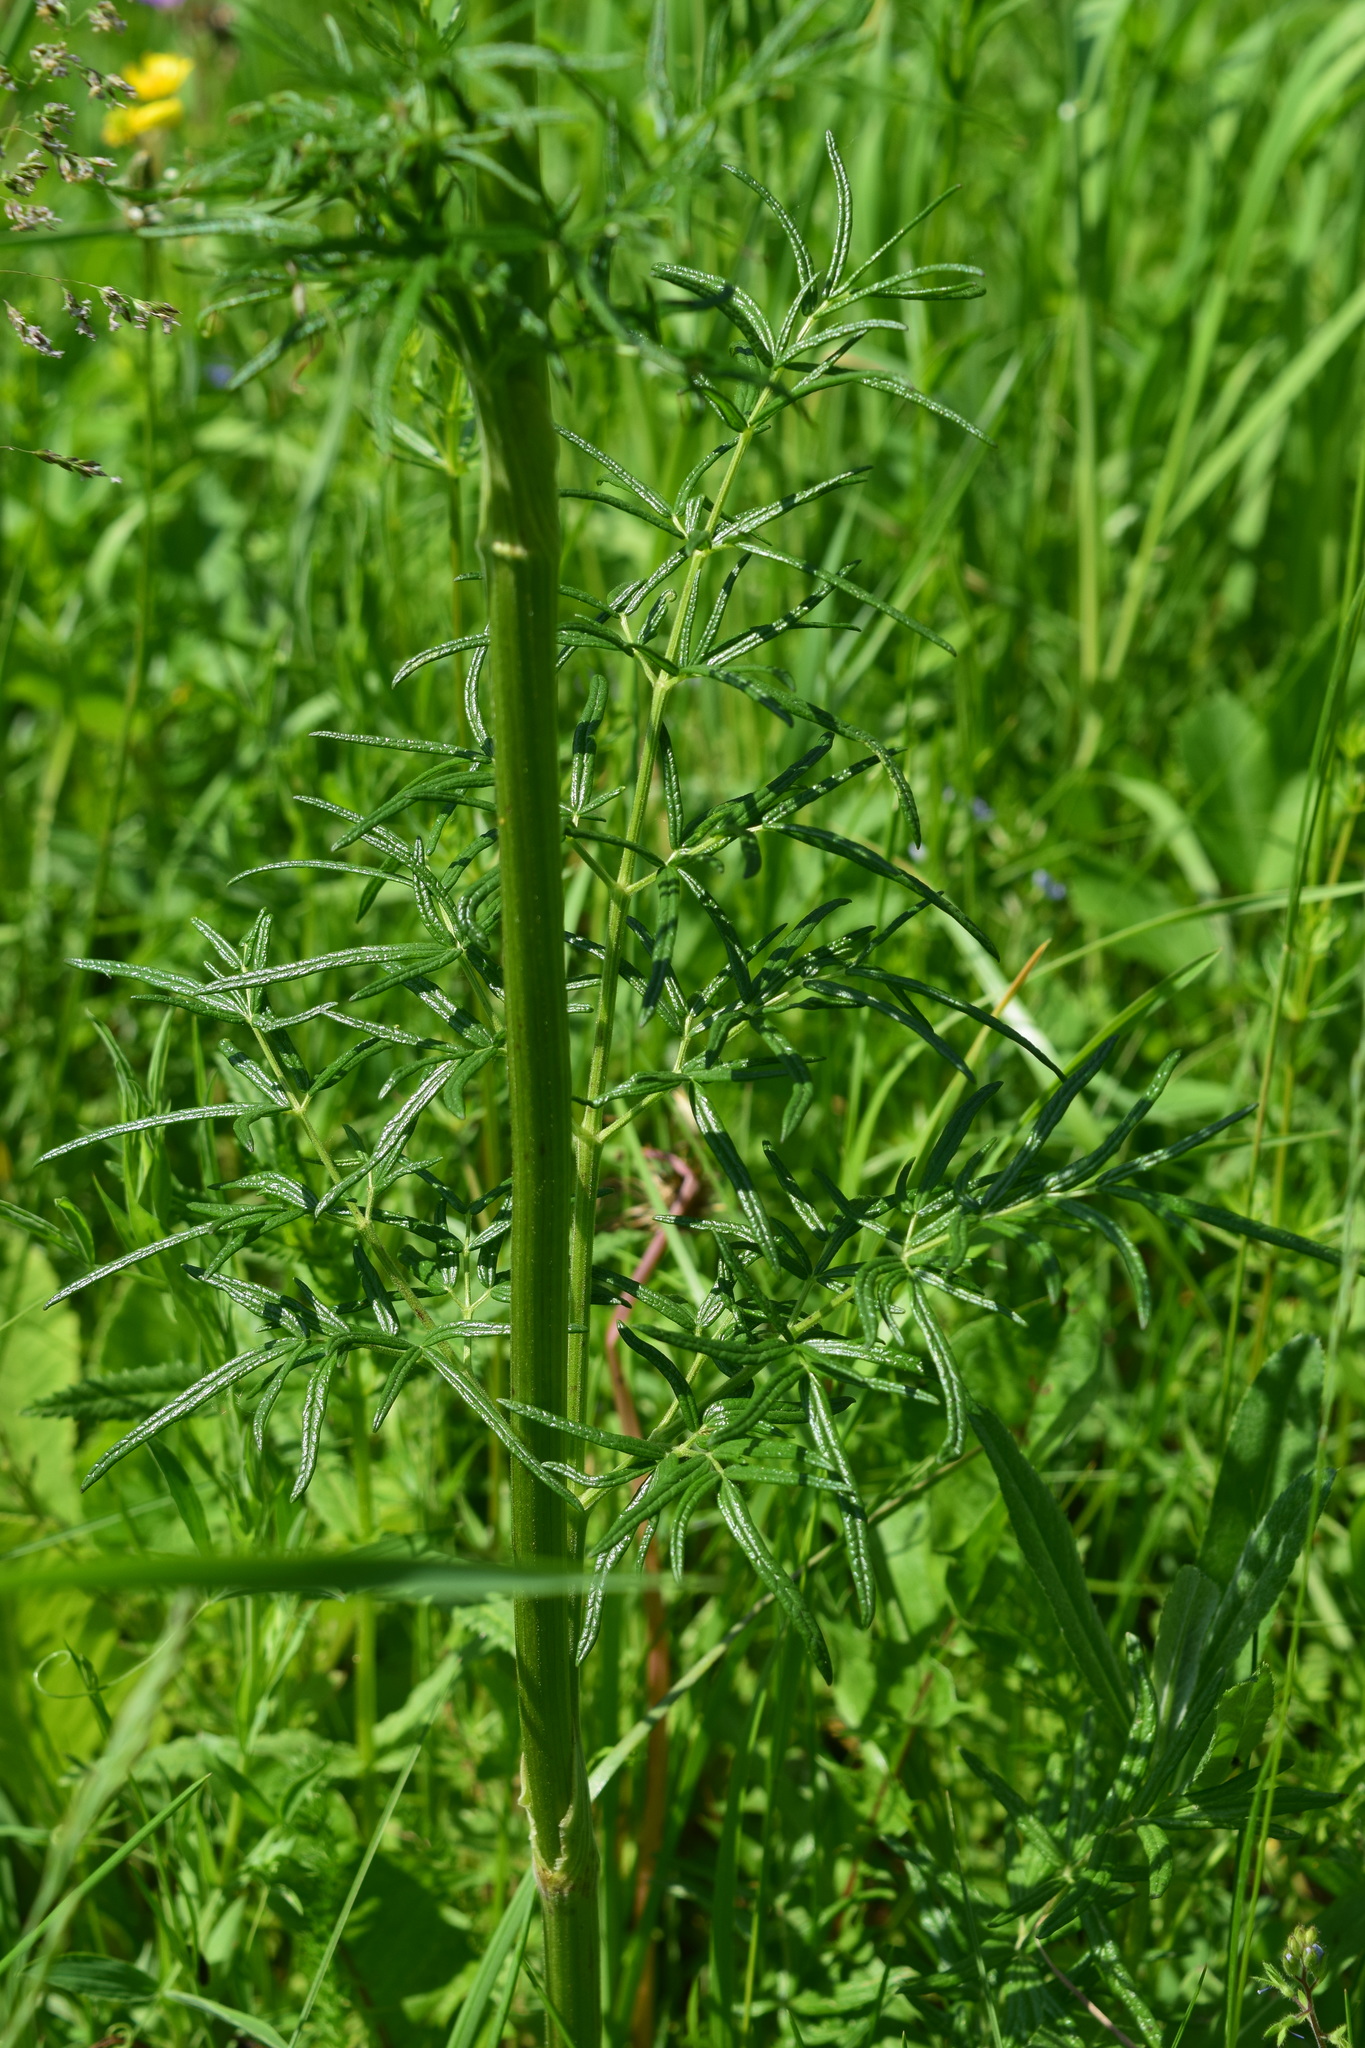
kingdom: Plantae
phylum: Tracheophyta
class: Magnoliopsida
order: Ranunculales
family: Ranunculaceae
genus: Thalictrum
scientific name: Thalictrum lucidum
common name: Shining meadow-rue
